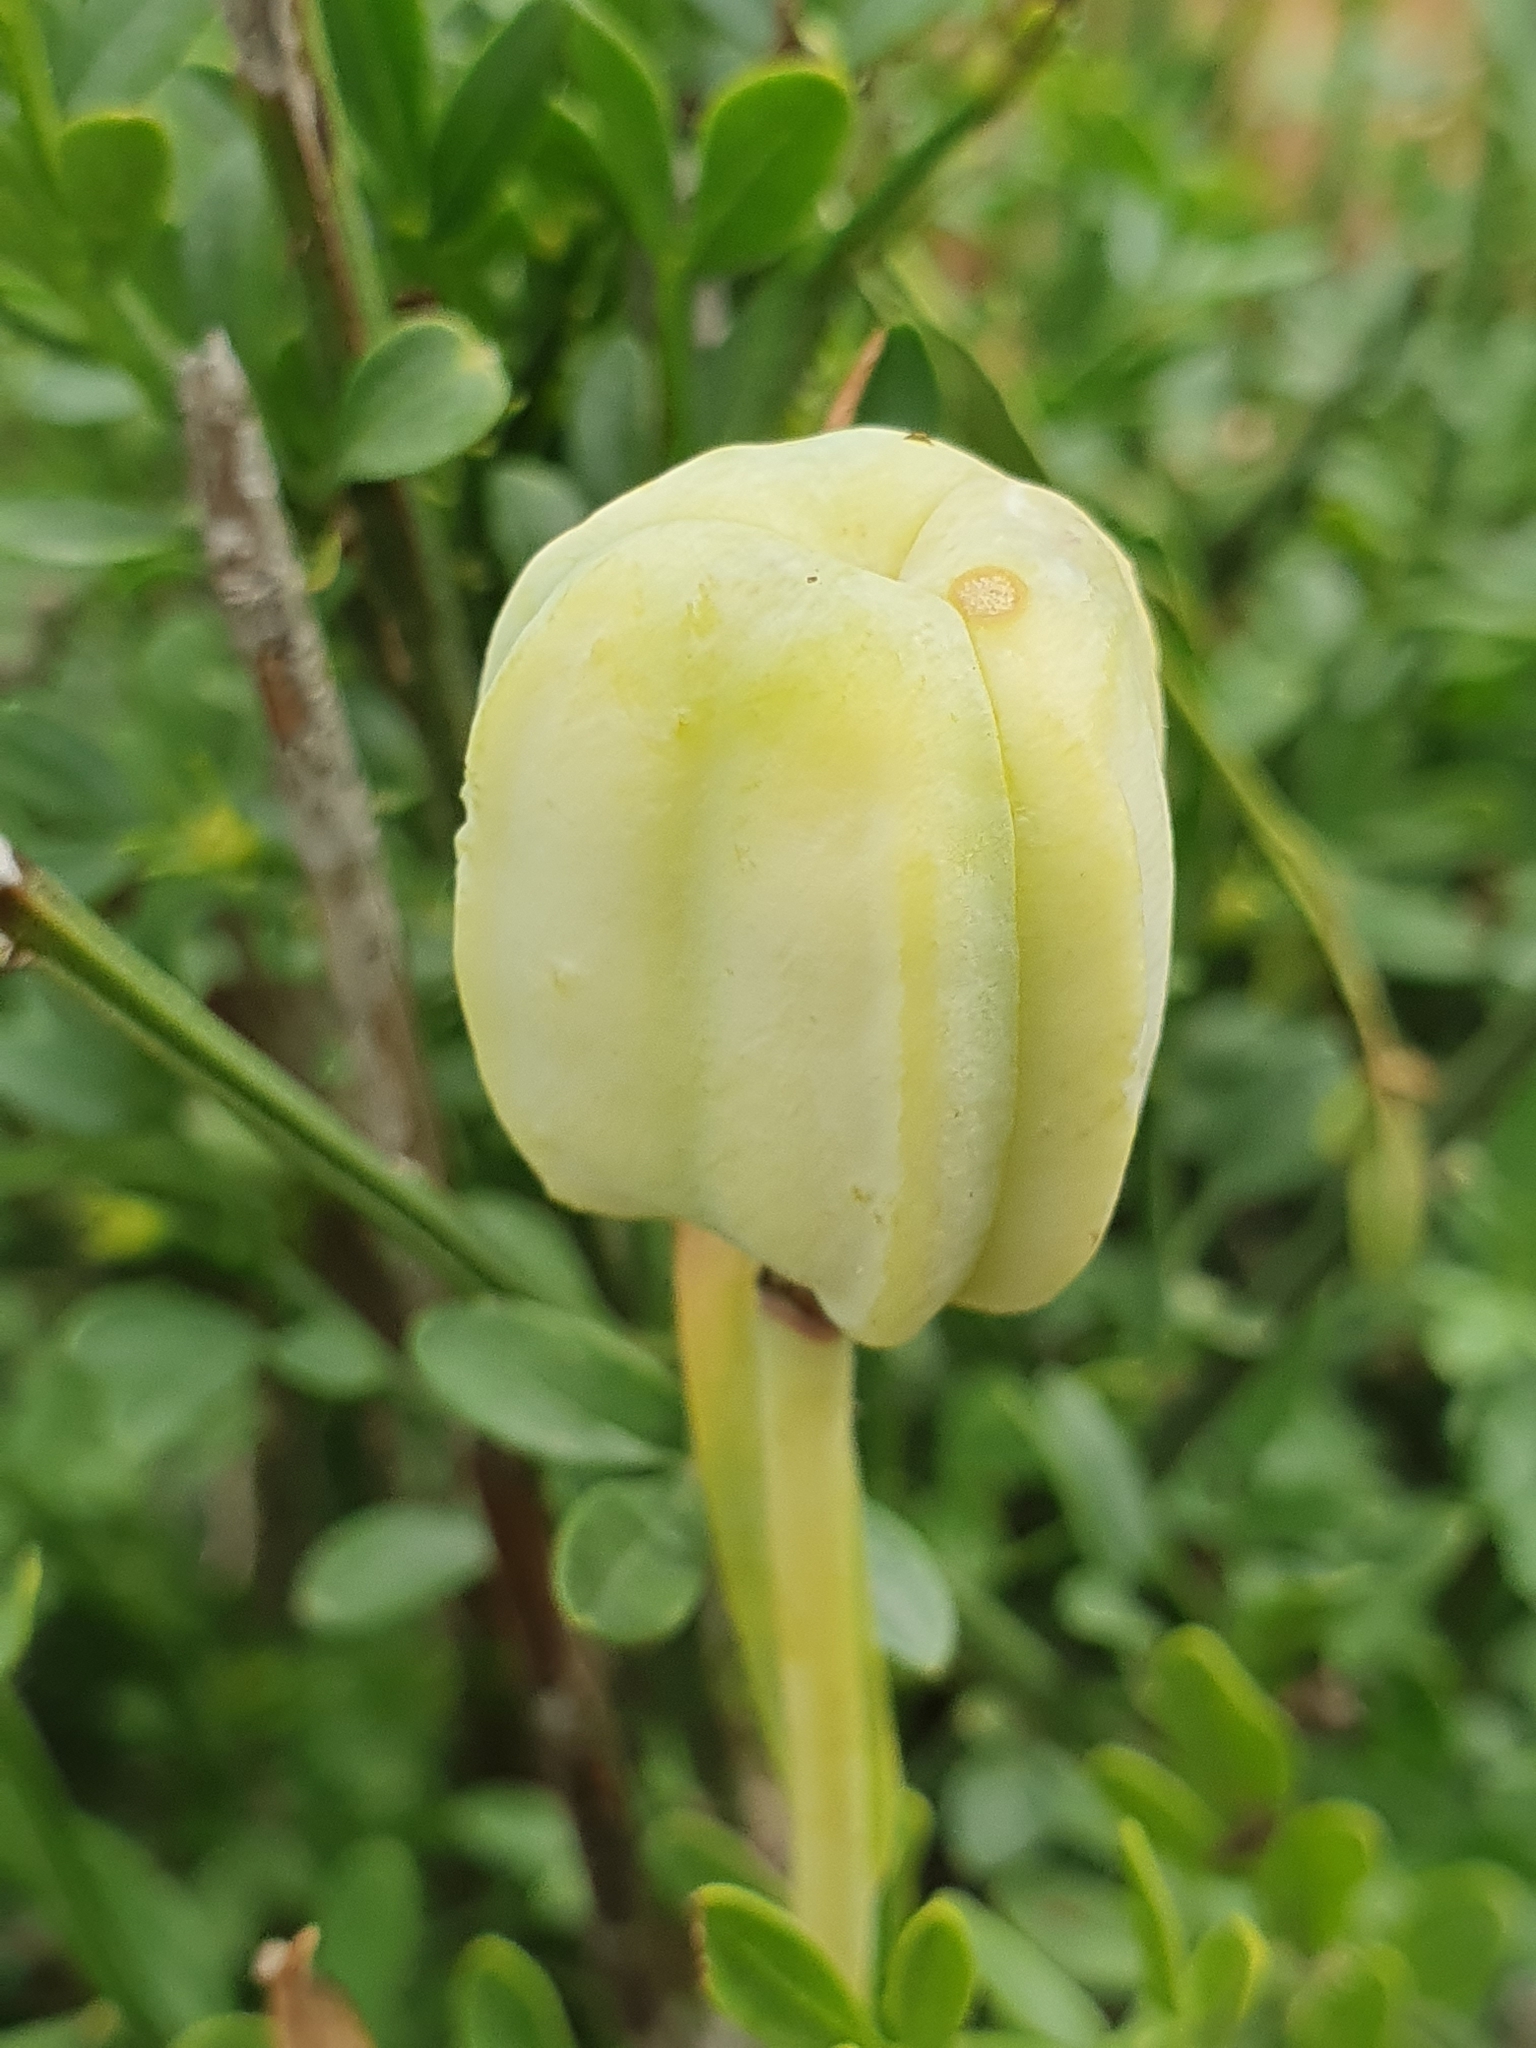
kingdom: Plantae
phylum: Tracheophyta
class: Liliopsida
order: Liliales
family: Liliaceae
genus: Fritillaria
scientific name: Fritillaria oranensis
